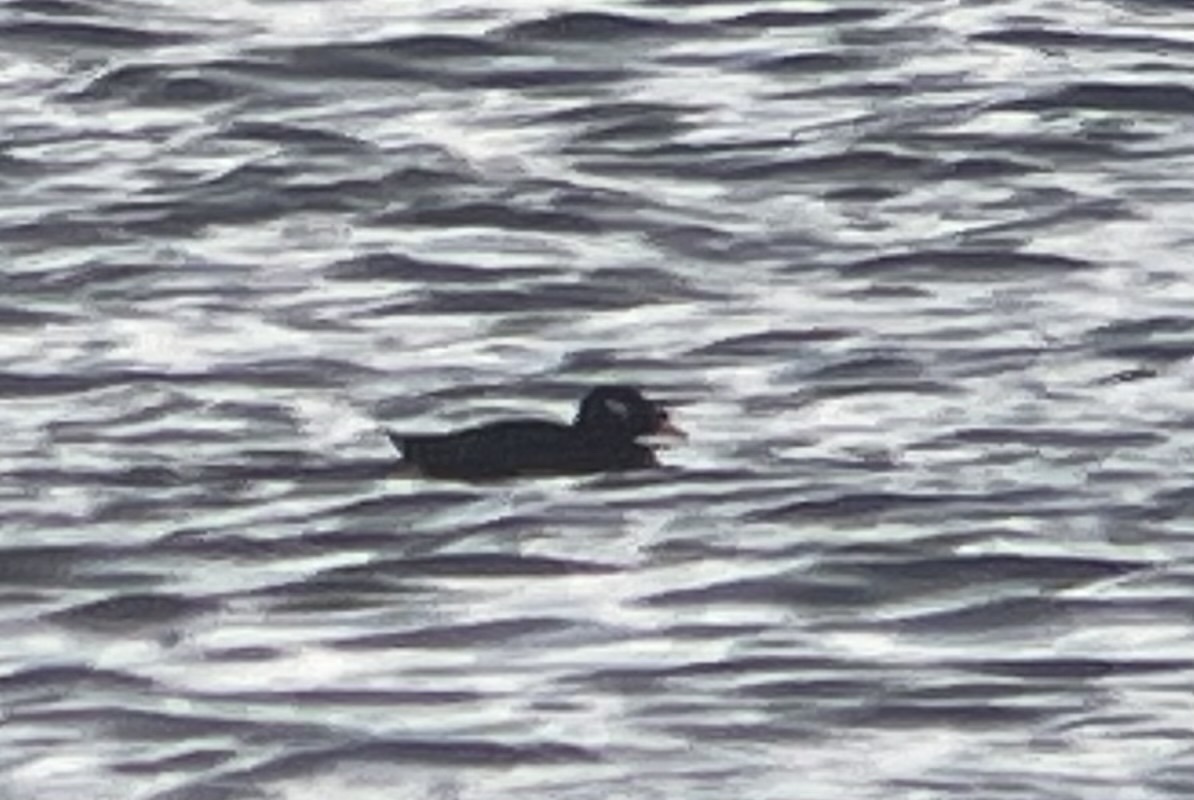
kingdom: Animalia
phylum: Chordata
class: Aves
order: Anseriformes
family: Anatidae
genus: Melanitta
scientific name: Melanitta stejnegeri
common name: Stejneger's scoter
